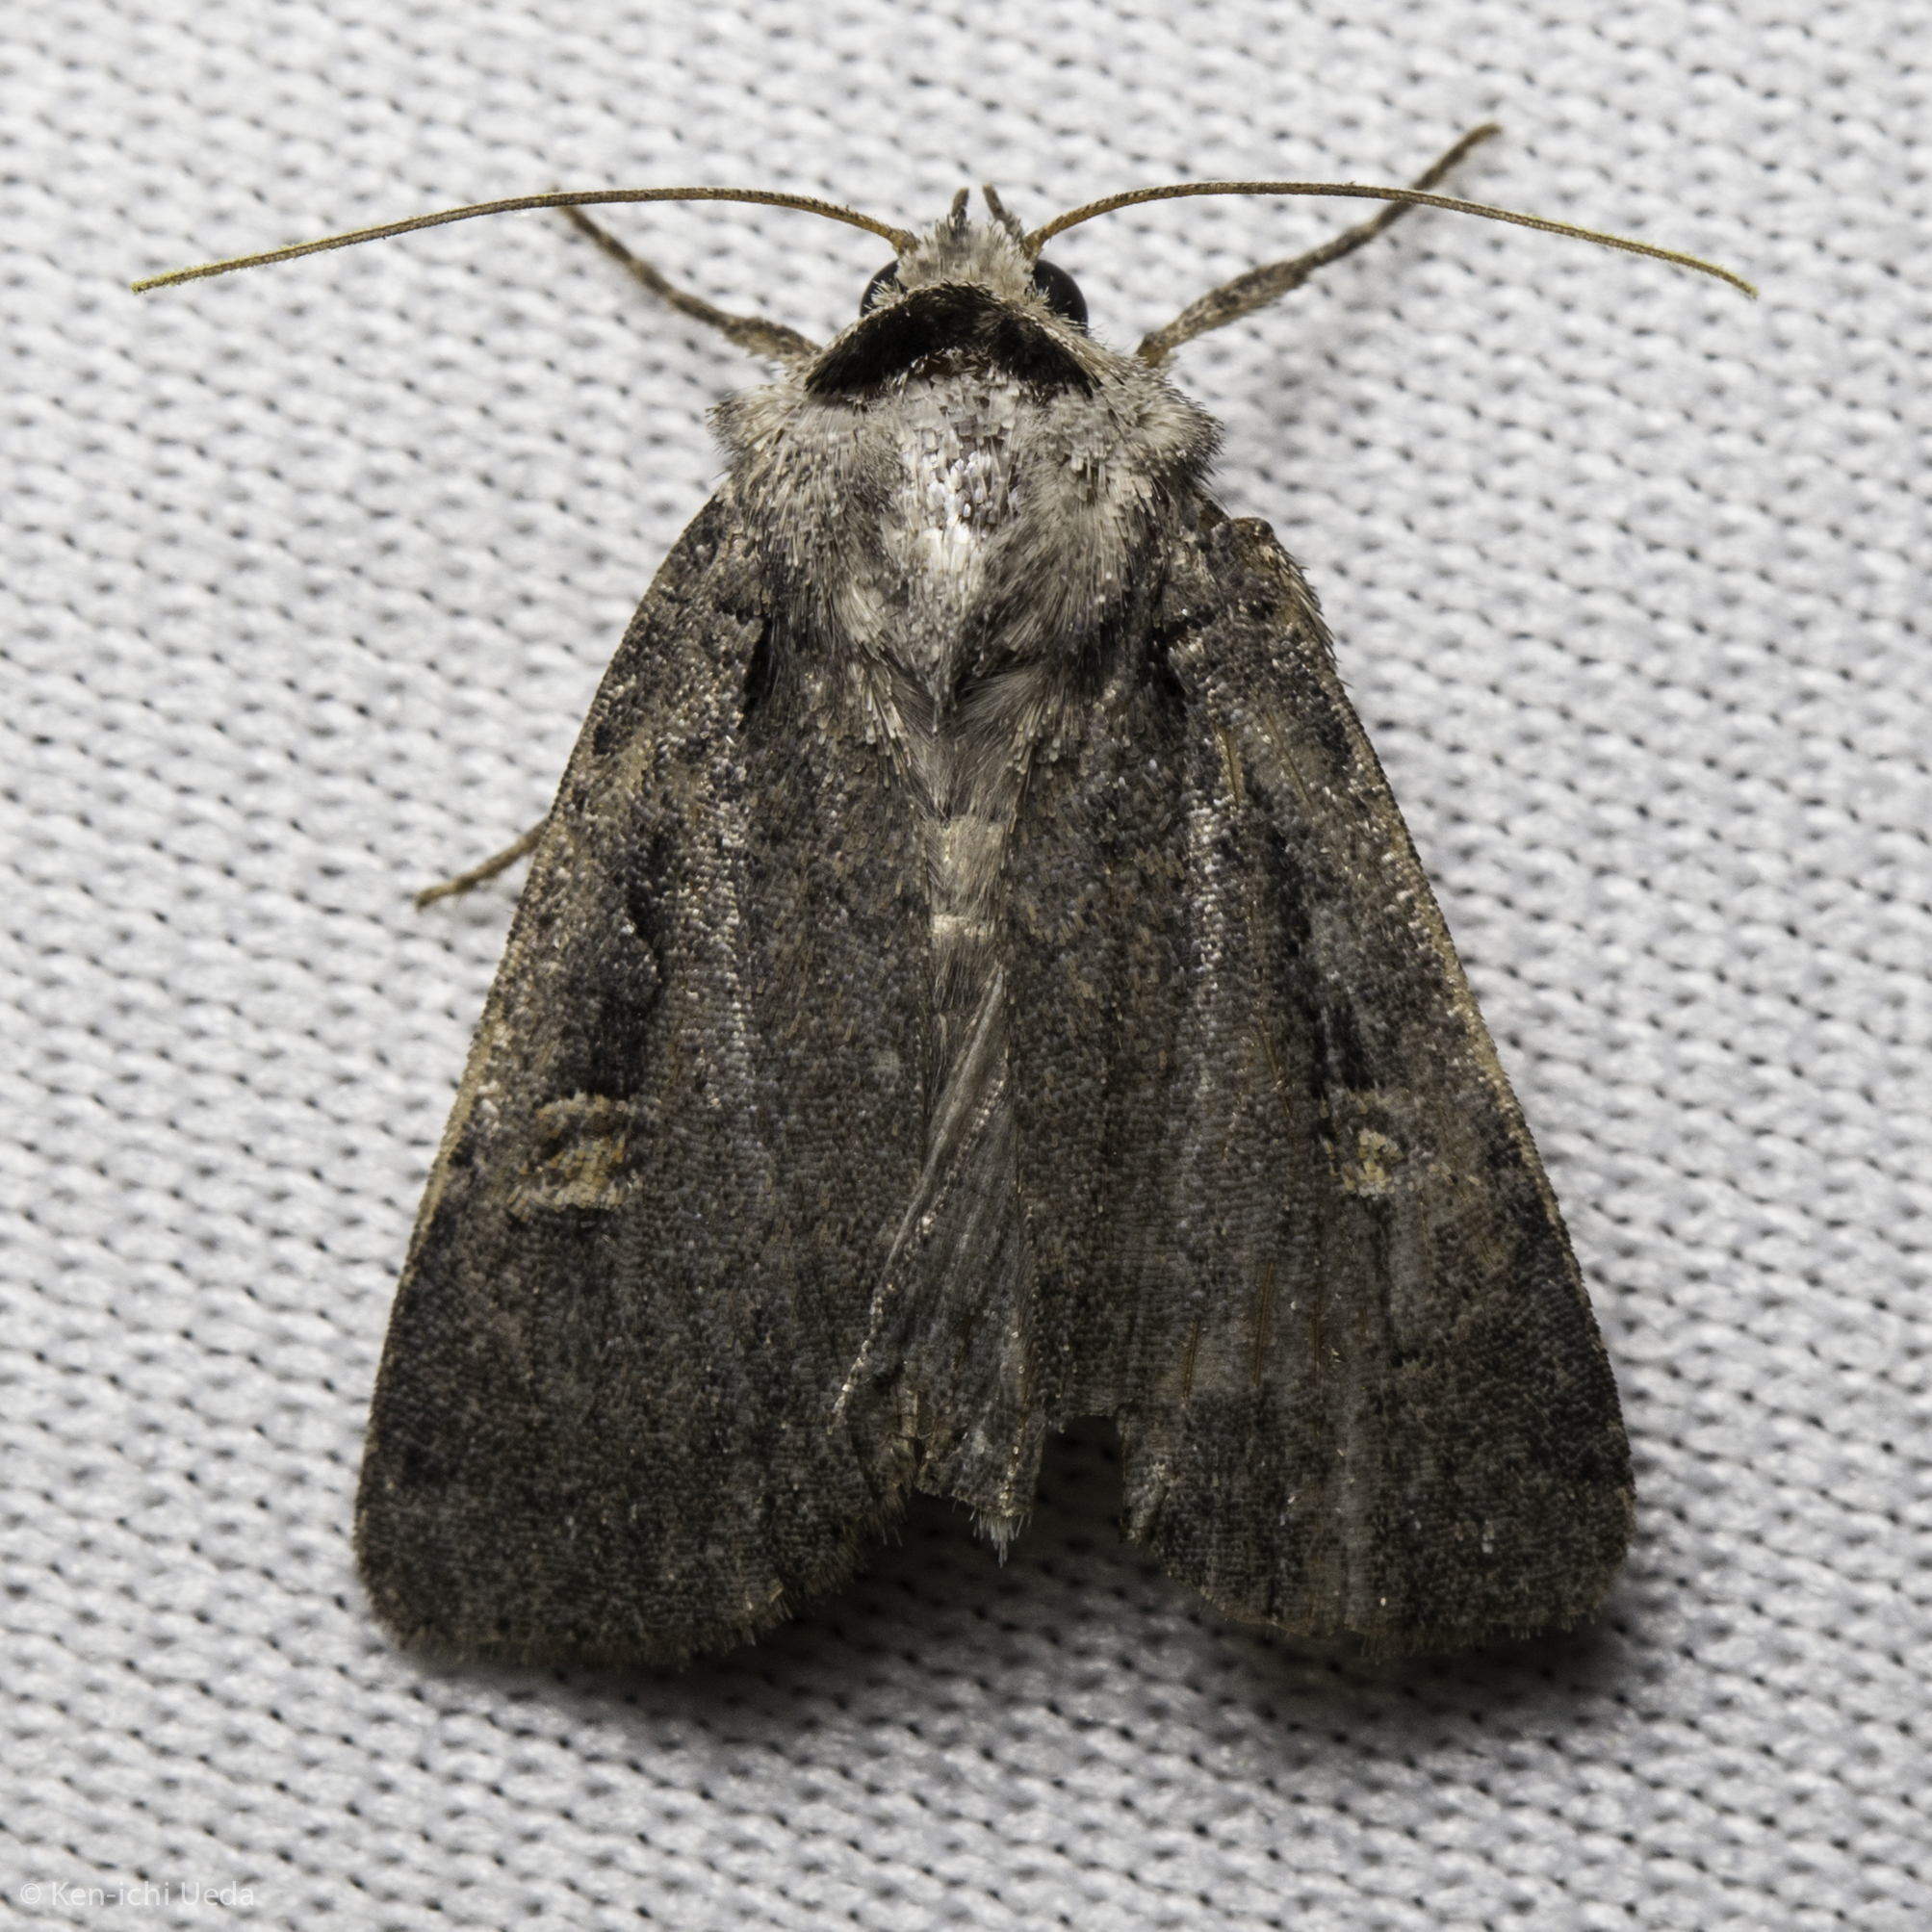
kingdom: Animalia
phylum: Arthropoda
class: Insecta
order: Lepidoptera
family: Noctuidae
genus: Adelphagrotis
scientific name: Adelphagrotis indeterminata
